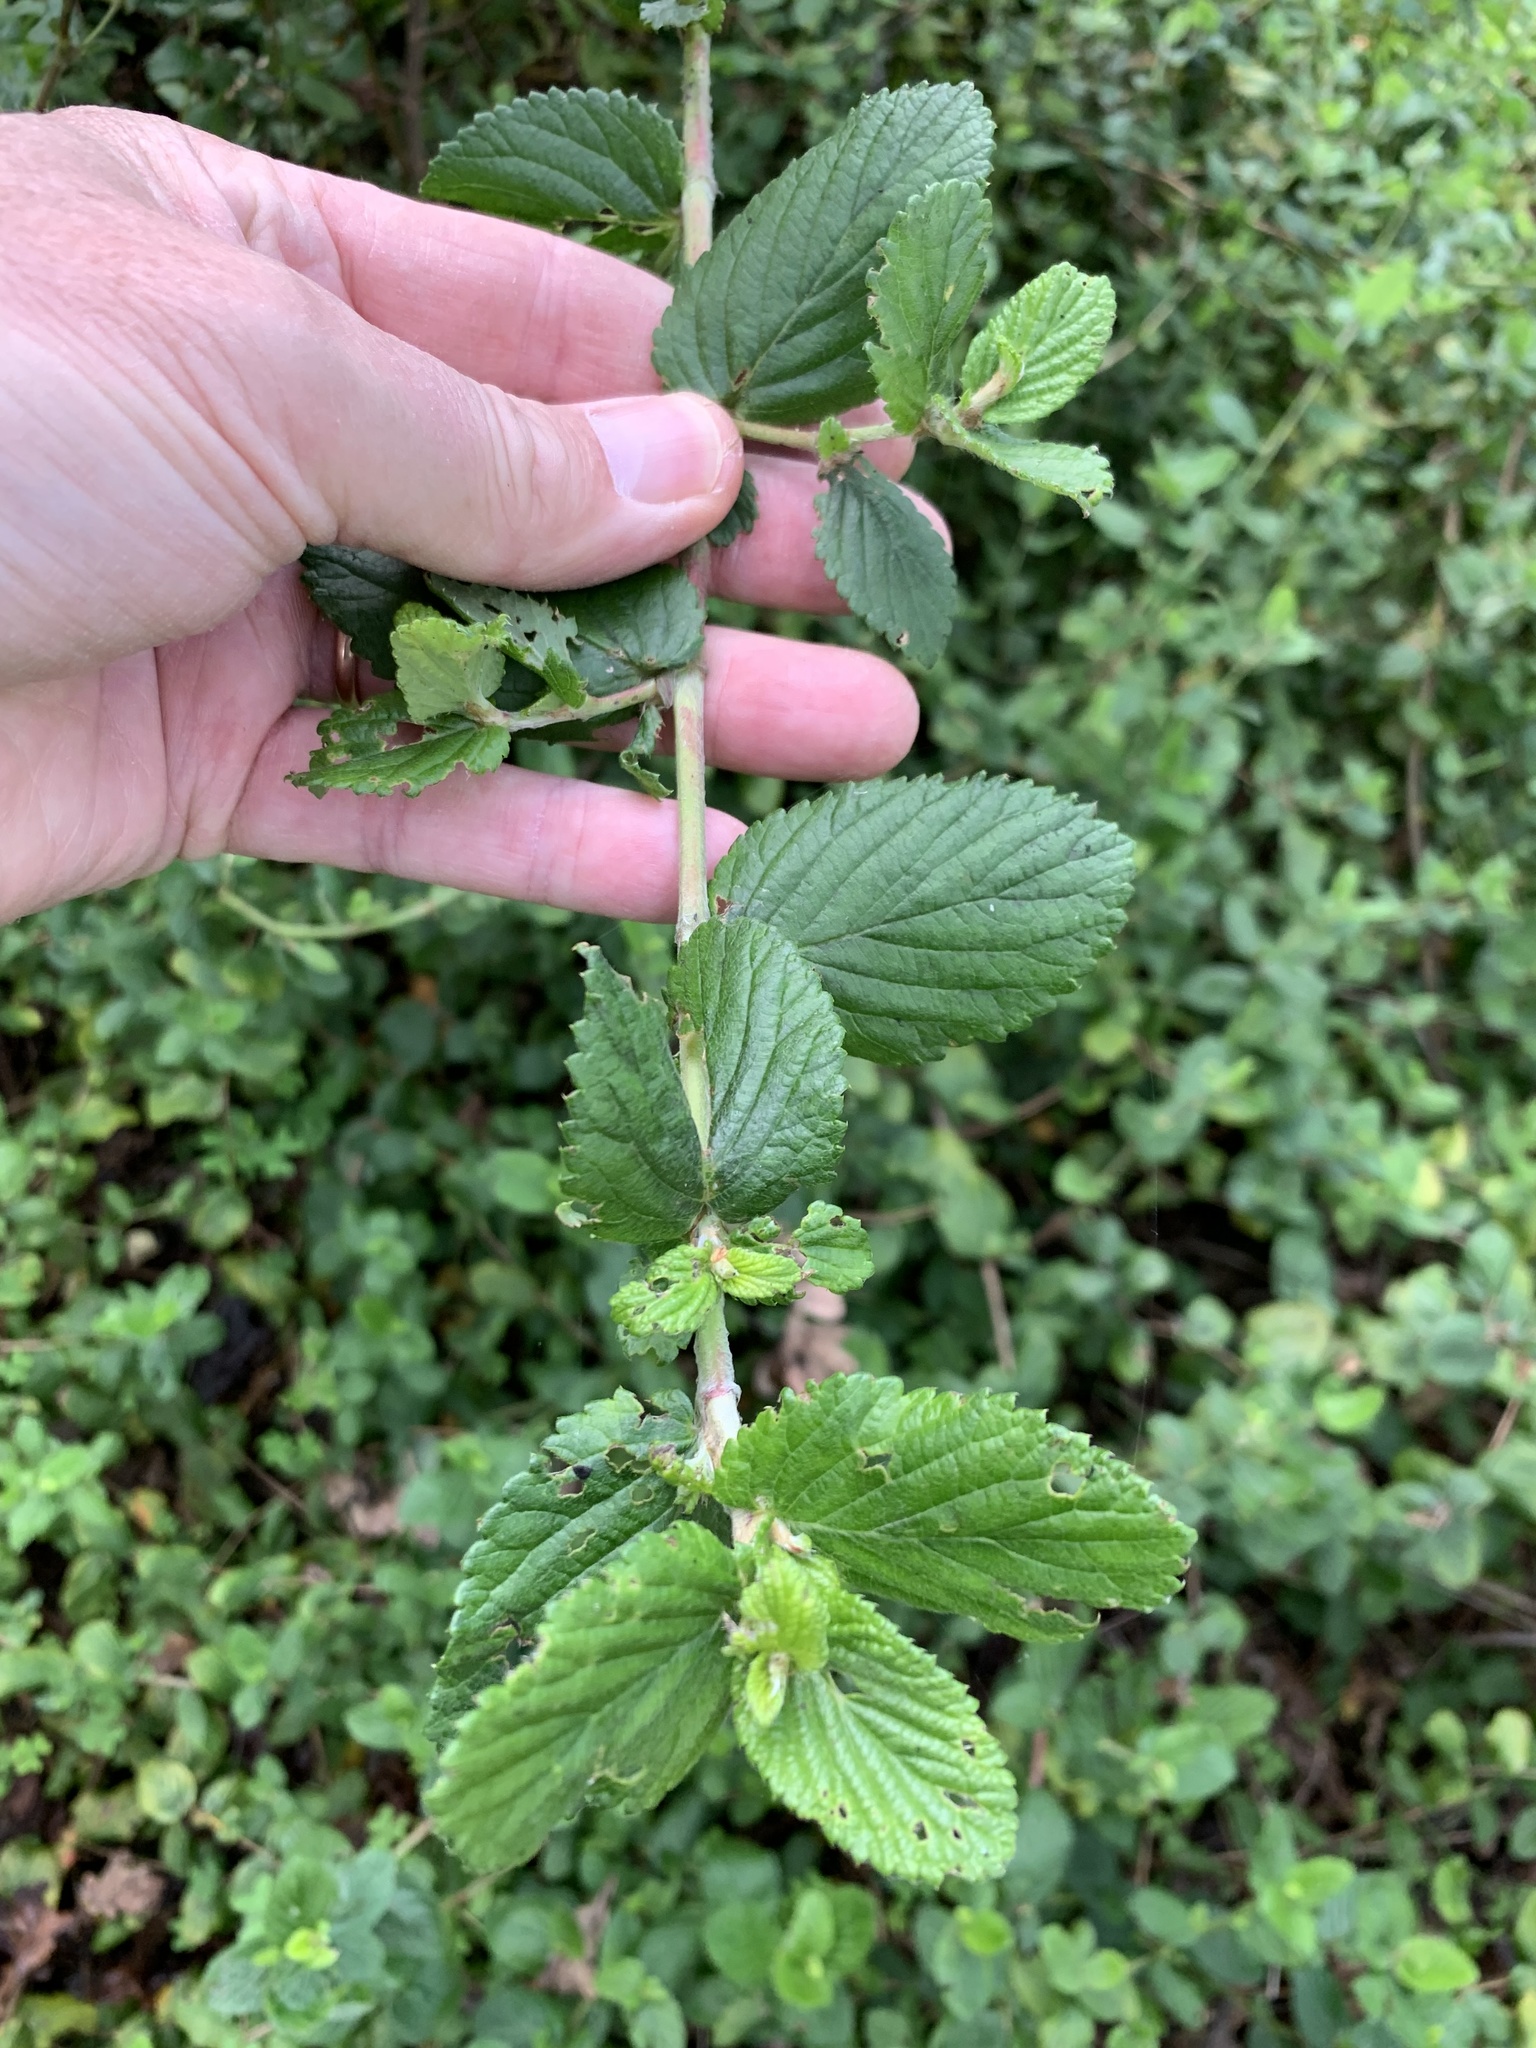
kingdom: Plantae
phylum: Tracheophyta
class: Magnoliopsida
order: Rosales
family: Rosaceae
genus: Cliffortia
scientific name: Cliffortia odorata
